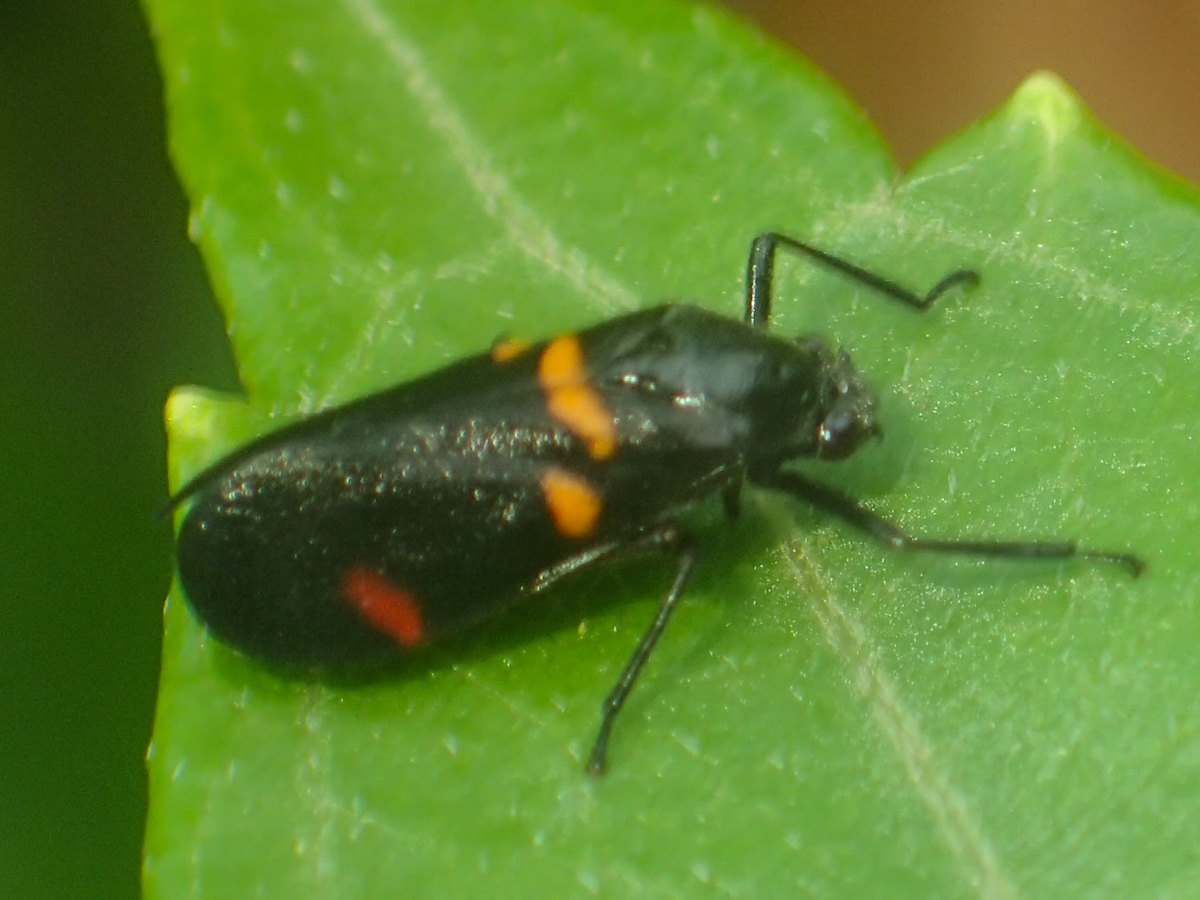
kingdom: Animalia
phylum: Arthropoda
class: Insecta
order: Hemiptera
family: Cercopidae
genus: Callitettix
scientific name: Callitettix carinifrons
